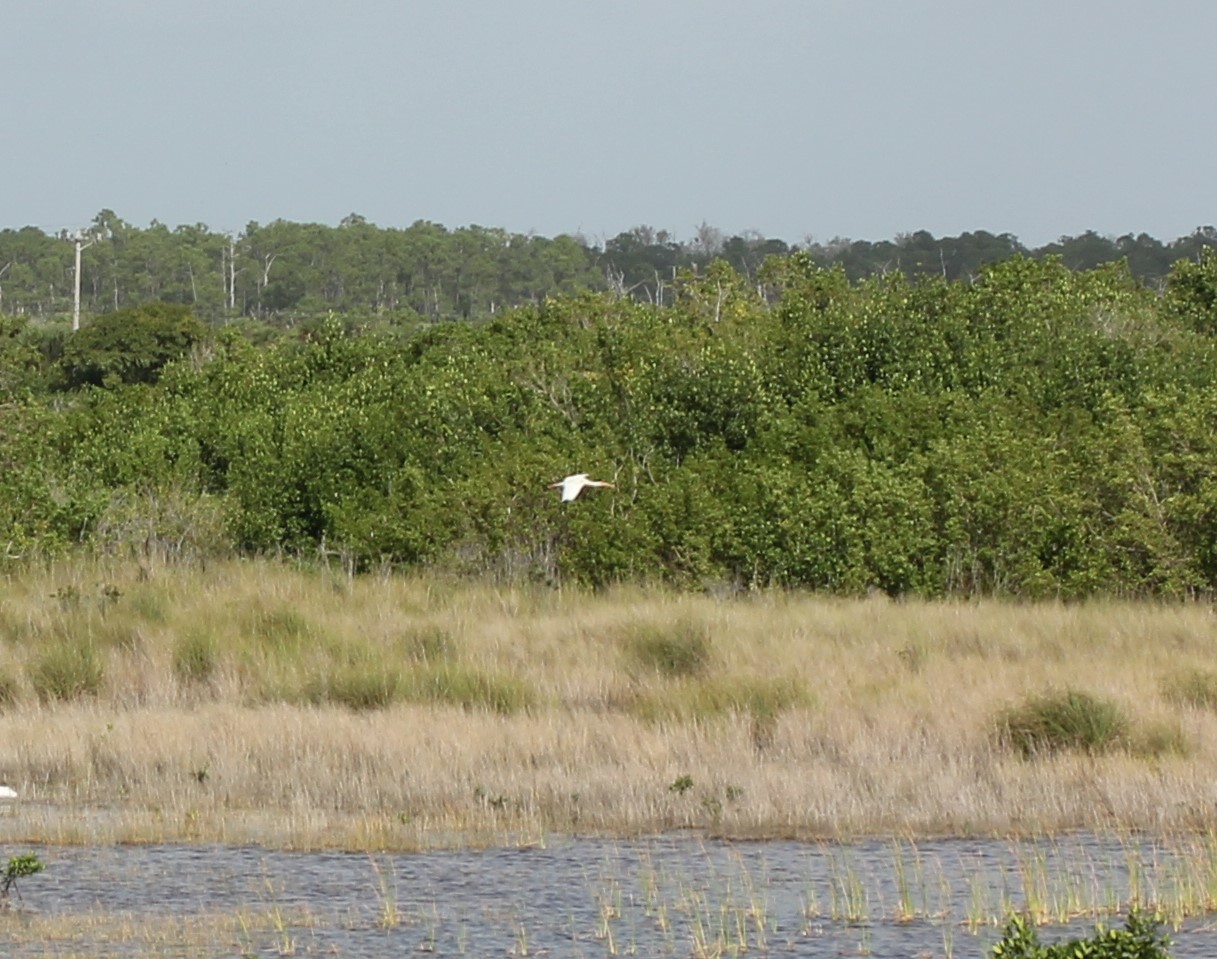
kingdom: Animalia
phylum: Chordata
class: Aves
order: Pelecaniformes
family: Threskiornithidae
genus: Eudocimus
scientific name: Eudocimus albus
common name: White ibis
